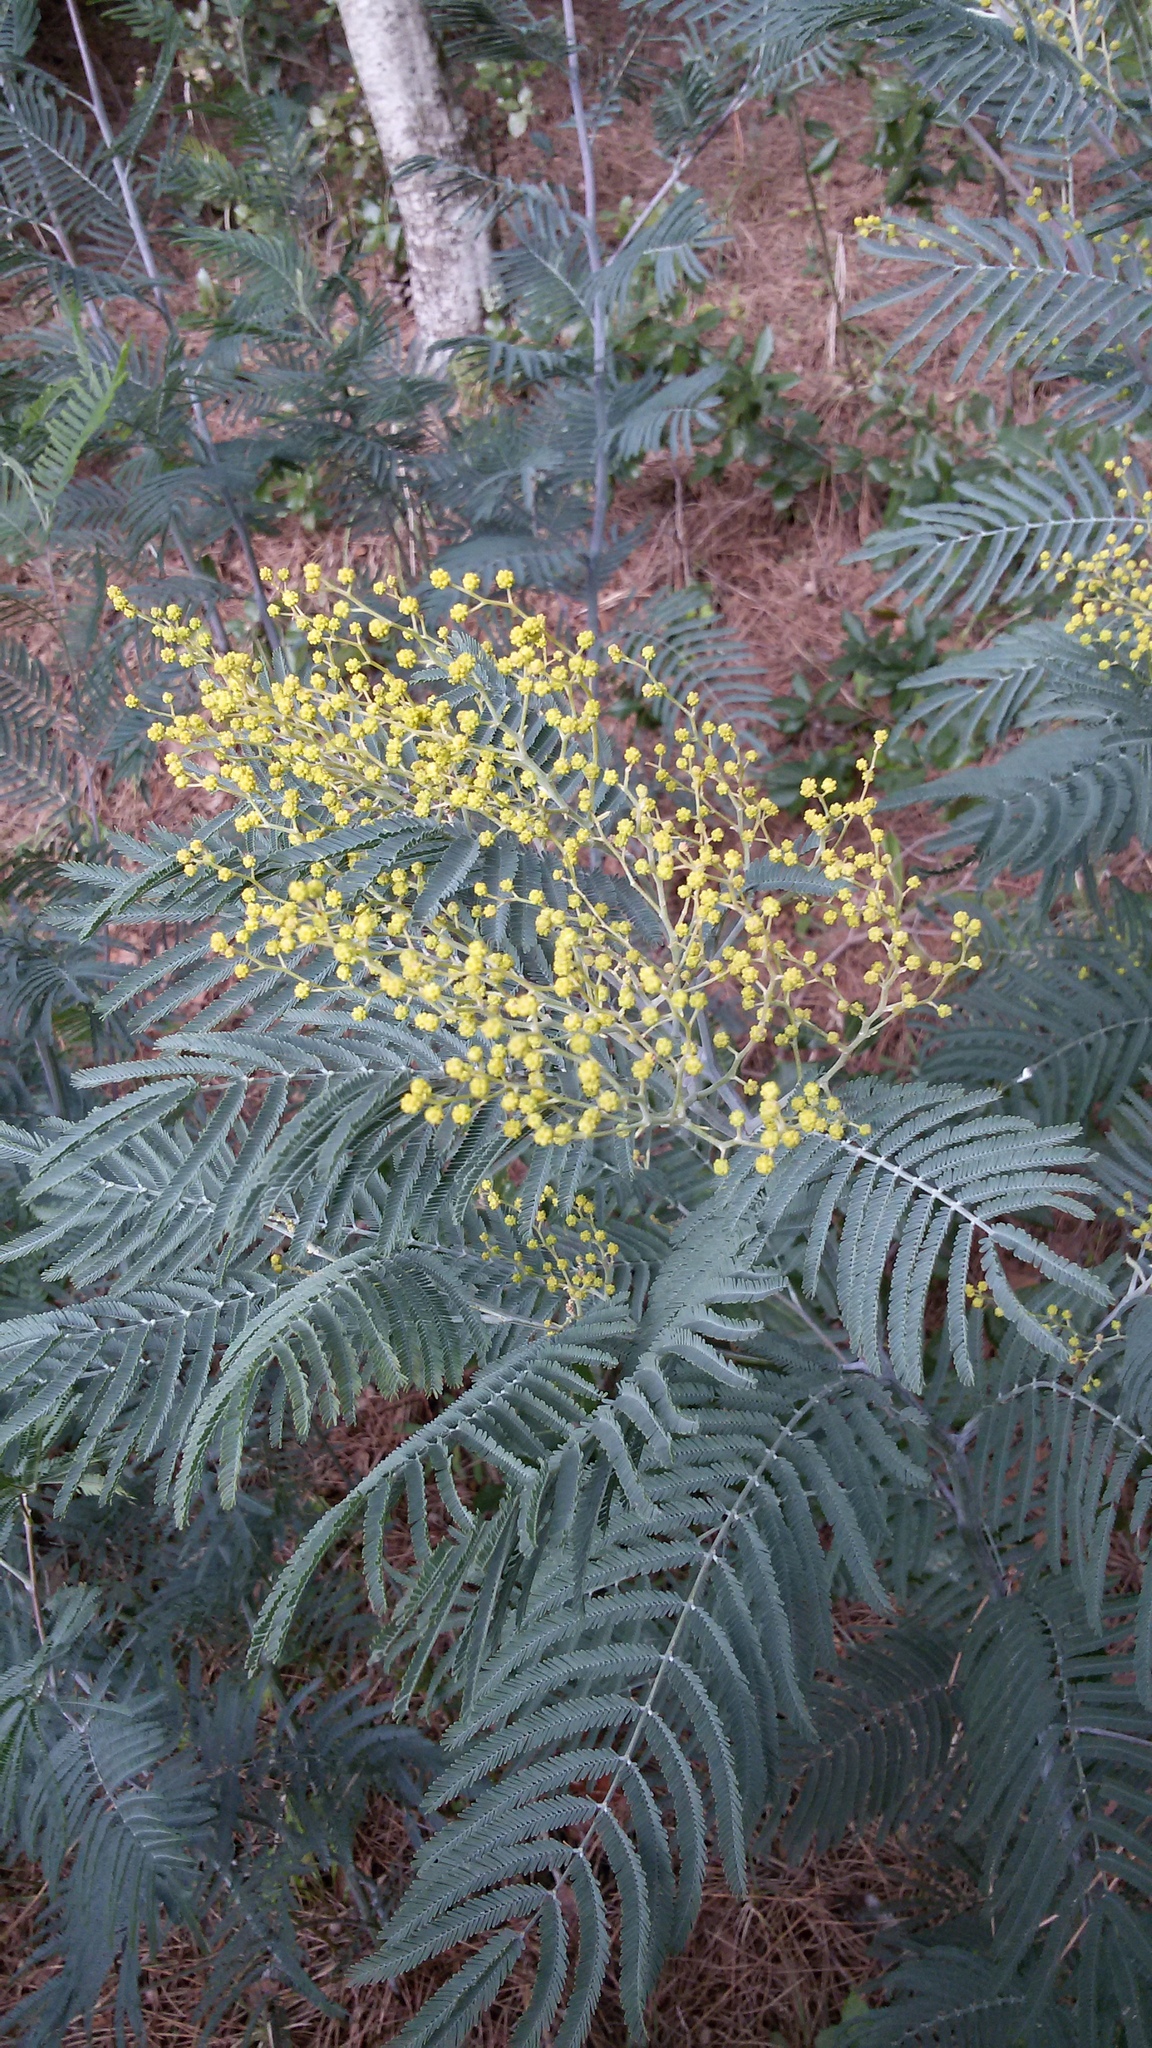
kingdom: Plantae
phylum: Tracheophyta
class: Magnoliopsida
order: Fabales
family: Fabaceae
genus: Acacia
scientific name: Acacia dealbata
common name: Silver wattle
